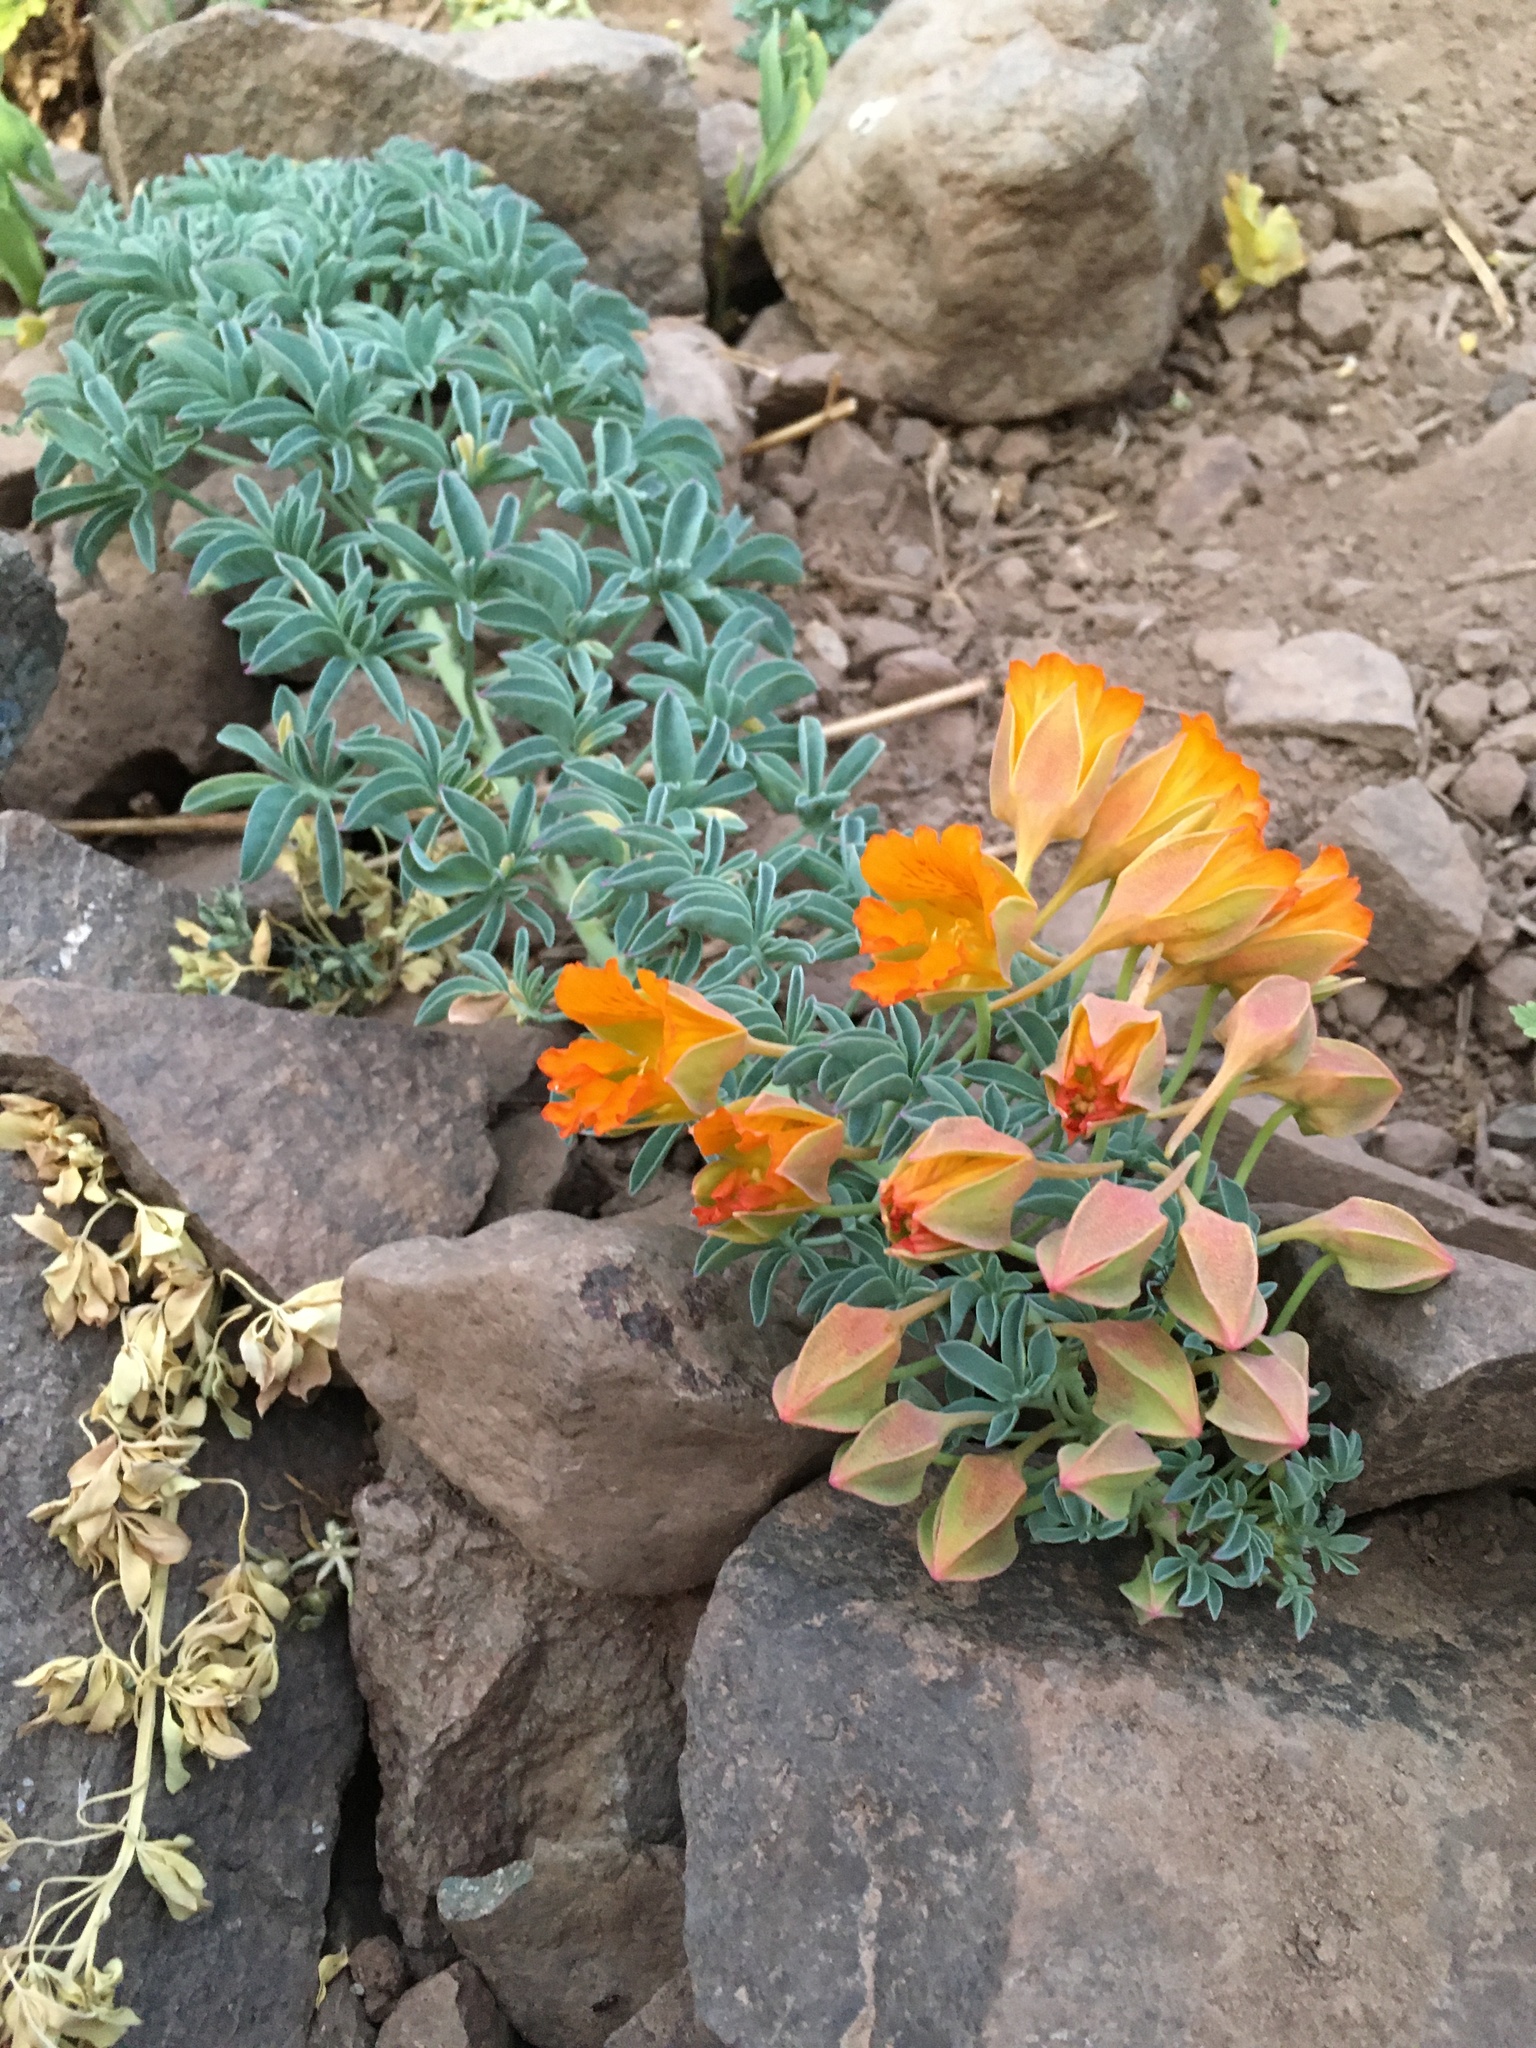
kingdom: Plantae
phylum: Tracheophyta
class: Magnoliopsida
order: Brassicales
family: Tropaeolaceae
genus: Tropaeolum
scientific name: Tropaeolum polyphyllum
